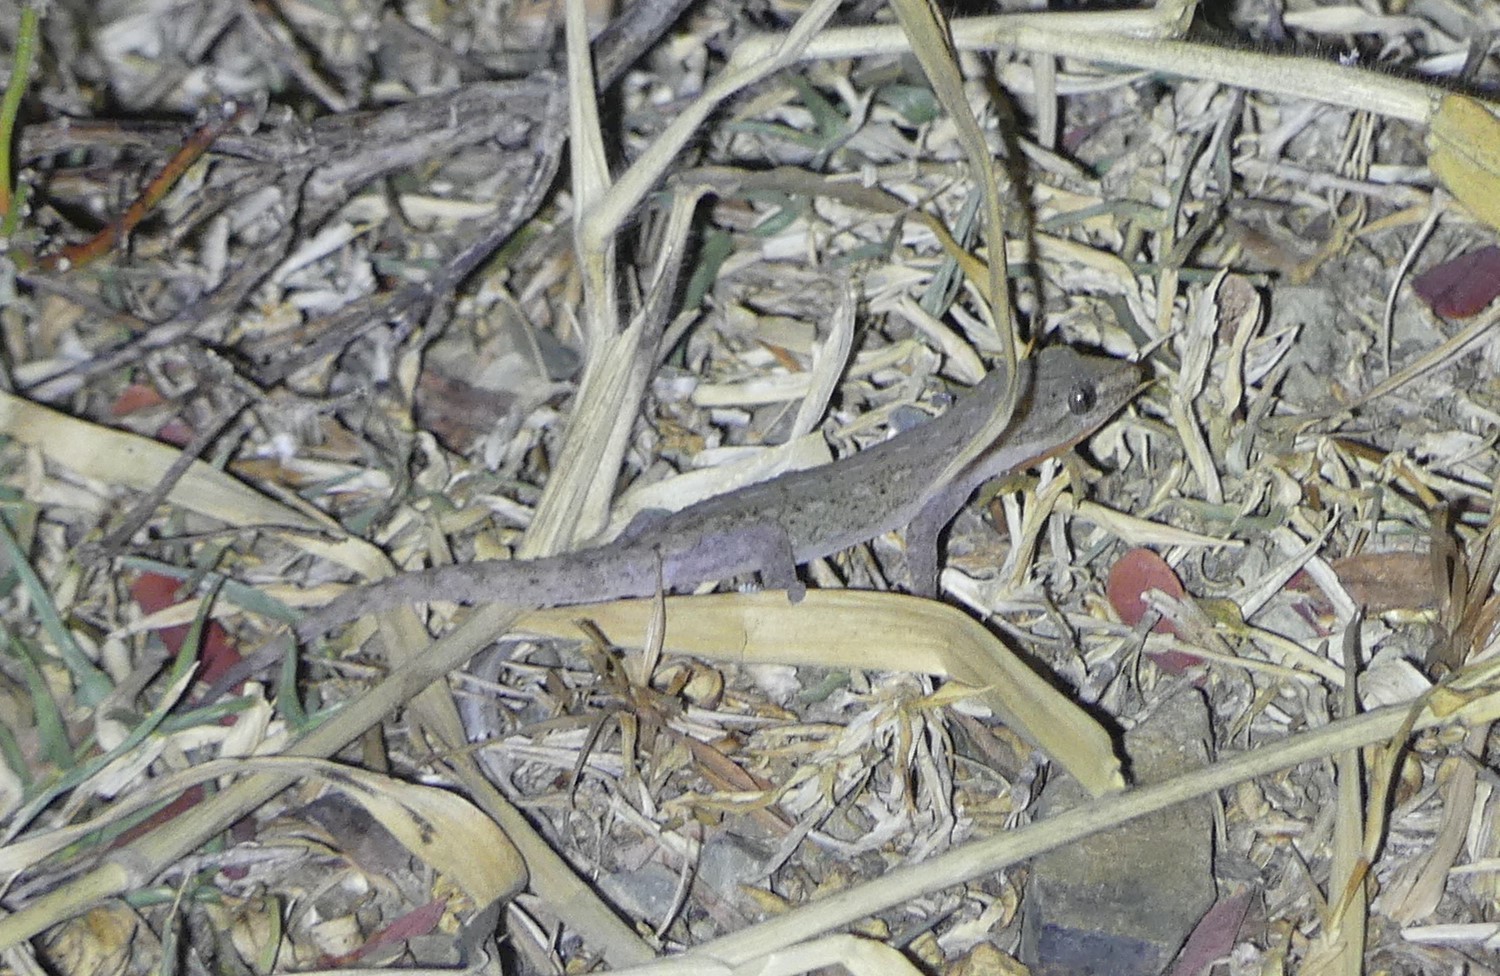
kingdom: Animalia
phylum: Chordata
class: Squamata
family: Gekkonidae
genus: Hemidactylus
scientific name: Hemidactylus frenatus
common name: Common house gecko
